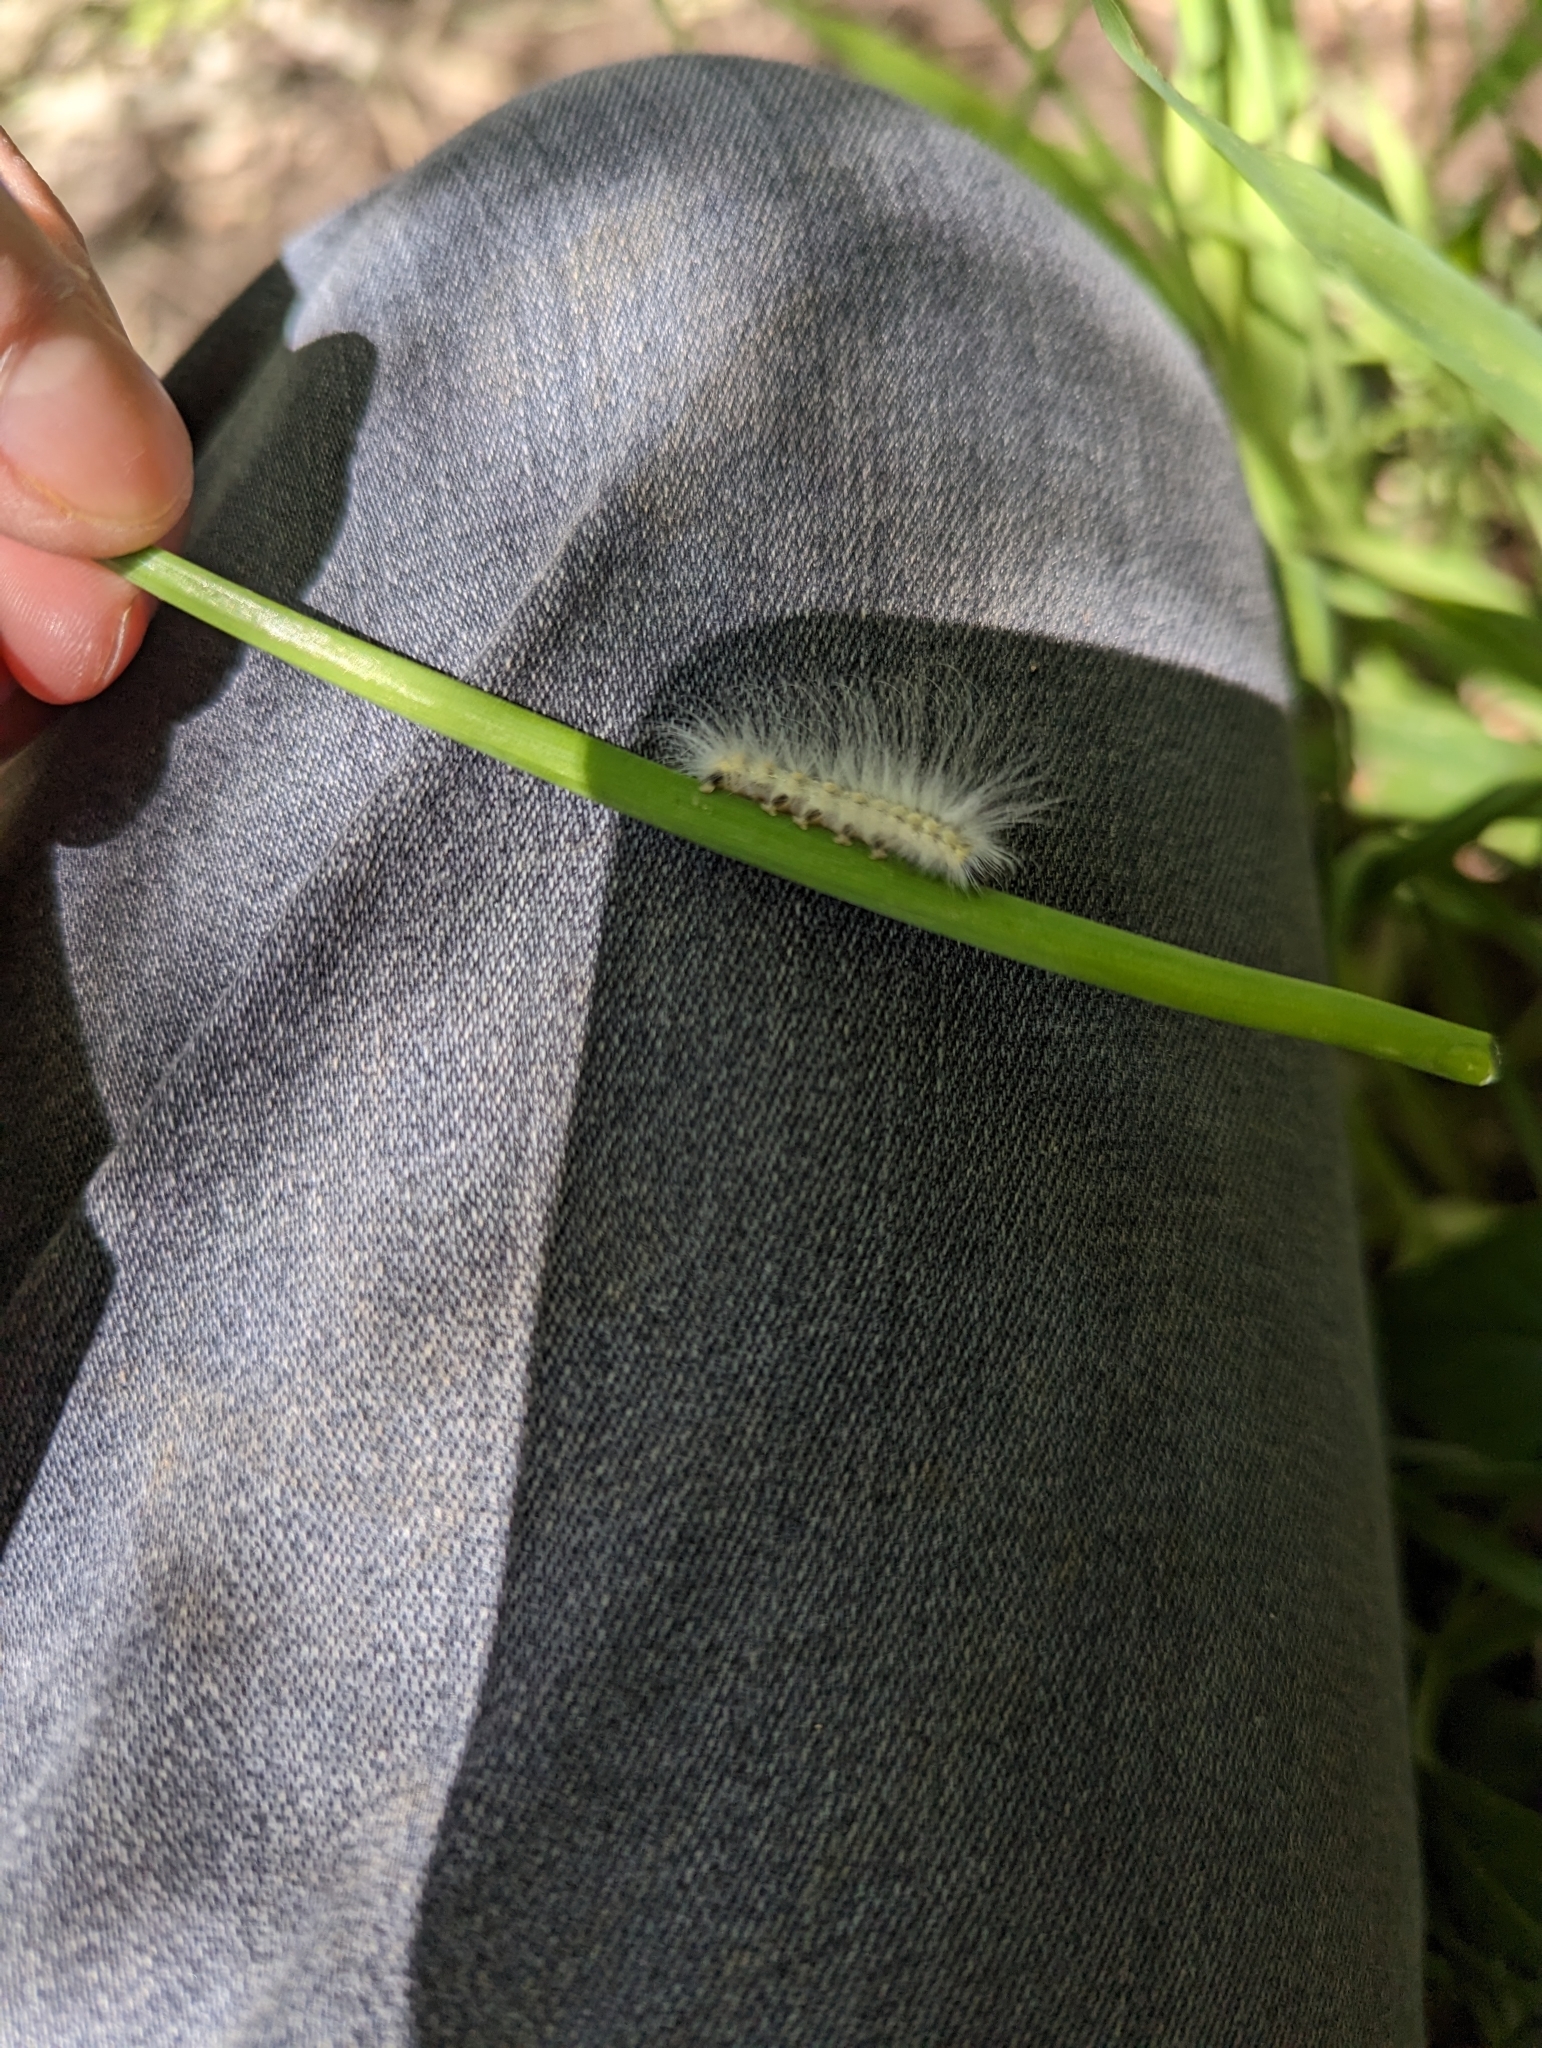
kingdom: Animalia
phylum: Arthropoda
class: Insecta
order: Lepidoptera
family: Erebidae
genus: Hyphantria
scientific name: Hyphantria cunea
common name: American white moth
